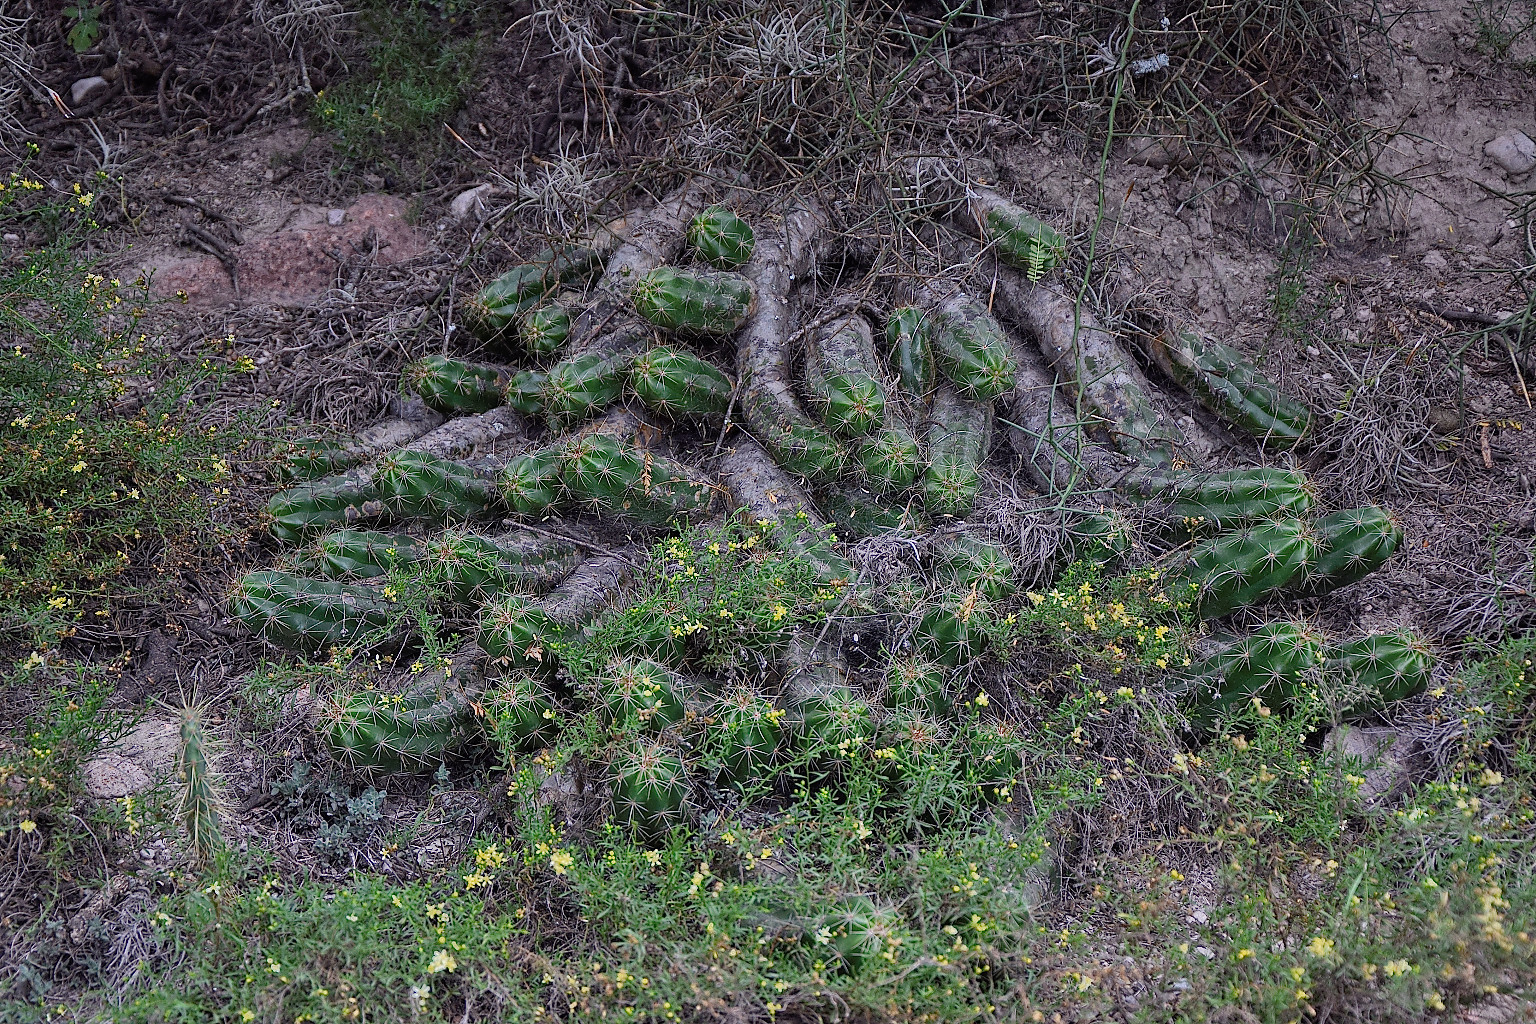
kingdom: Plantae
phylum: Tracheophyta
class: Magnoliopsida
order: Caryophyllales
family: Cactaceae
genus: Echinocereus
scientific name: Echinocereus cinerascens
